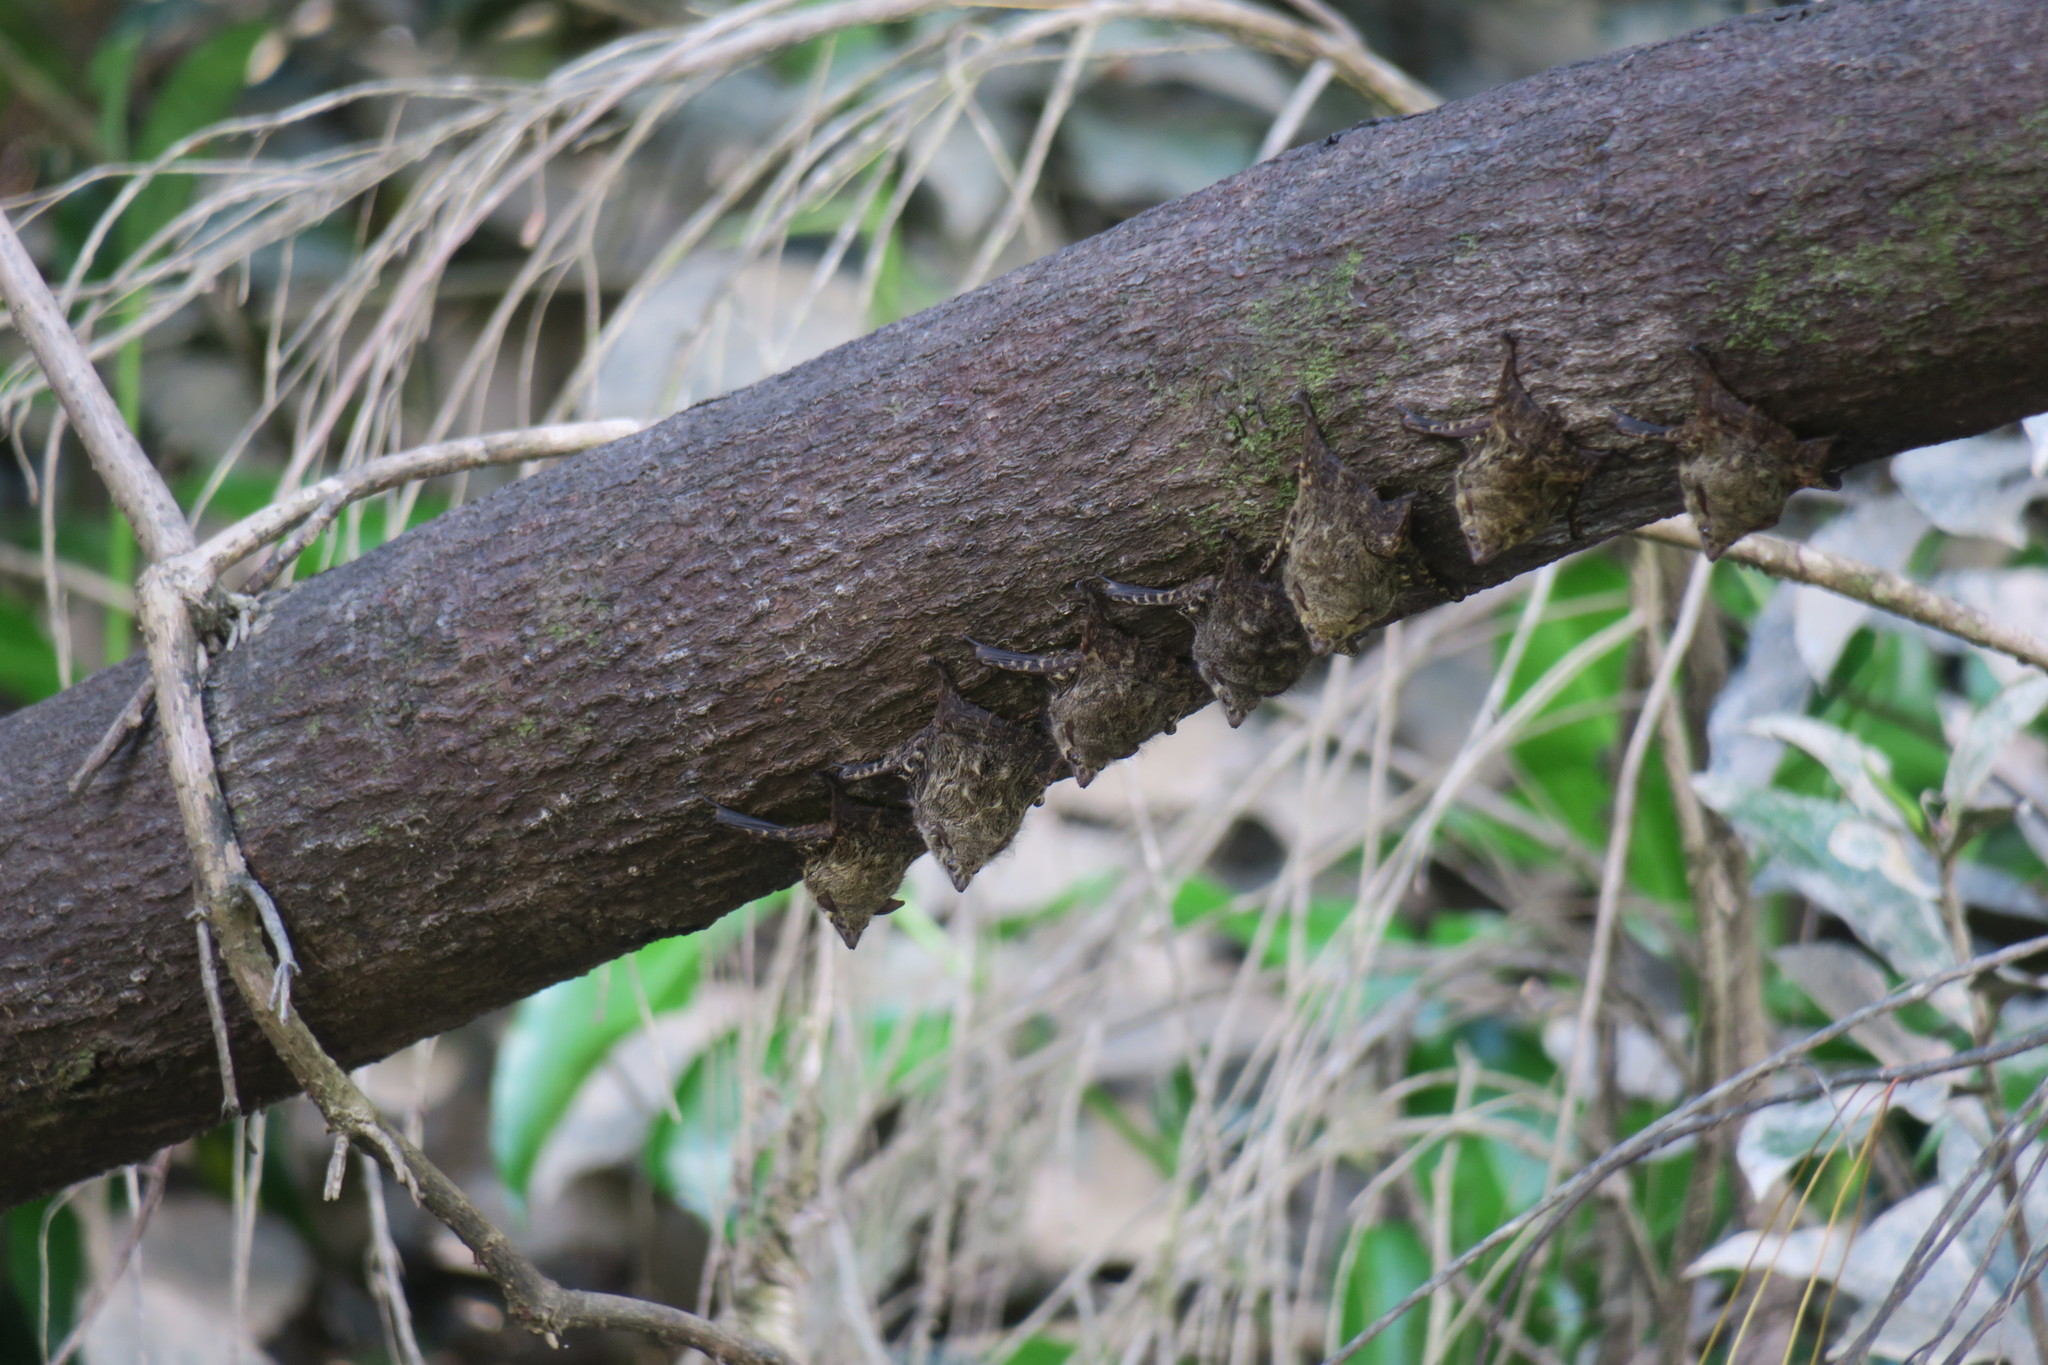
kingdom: Animalia
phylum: Chordata
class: Mammalia
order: Chiroptera
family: Emballonuridae
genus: Rhynchonycteris
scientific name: Rhynchonycteris naso
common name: Proboscis bat
